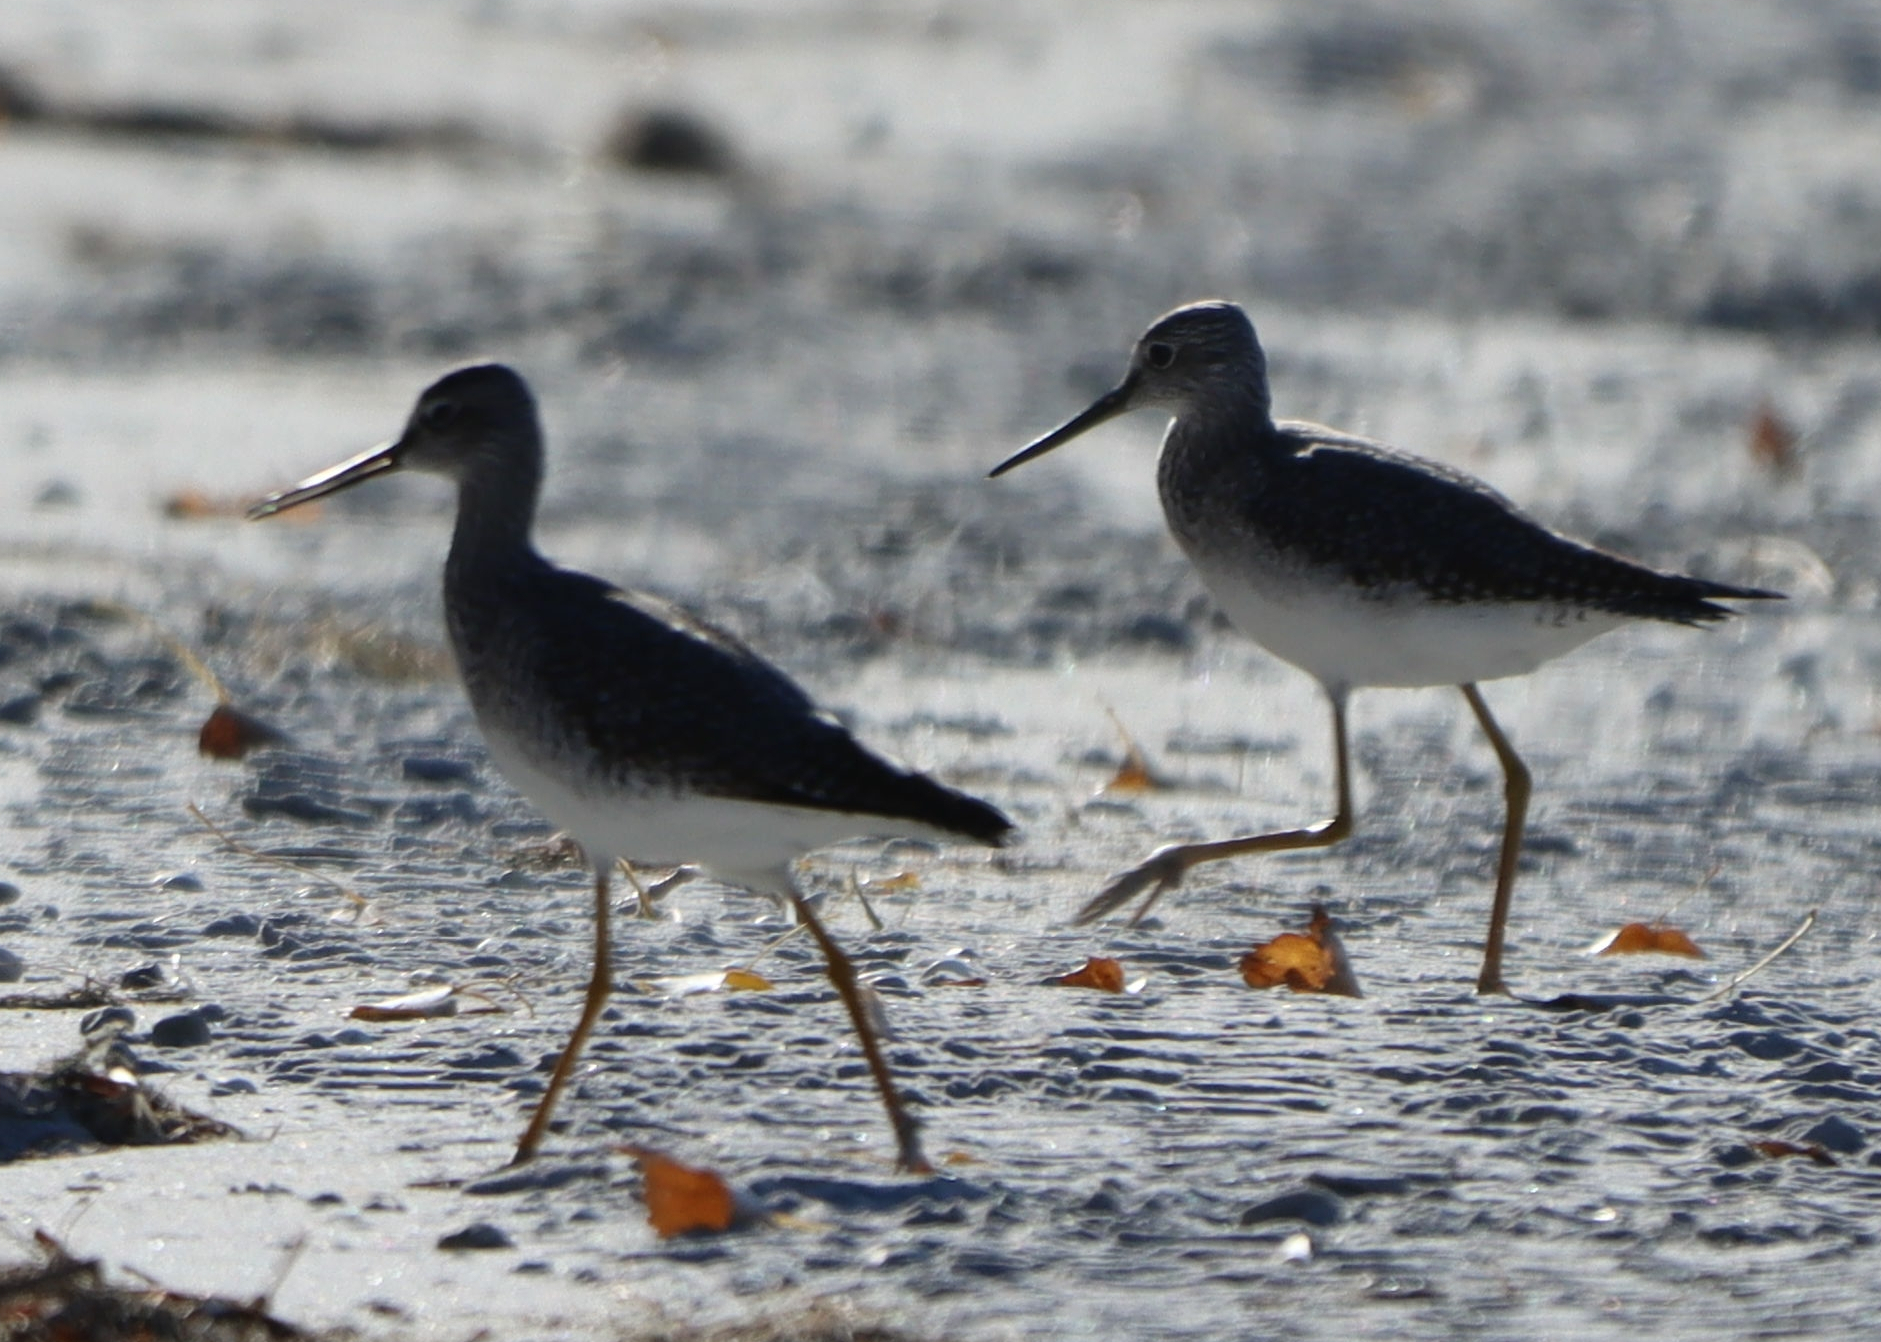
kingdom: Animalia
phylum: Chordata
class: Aves
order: Charadriiformes
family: Scolopacidae
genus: Tringa
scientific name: Tringa melanoleuca
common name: Greater yellowlegs
